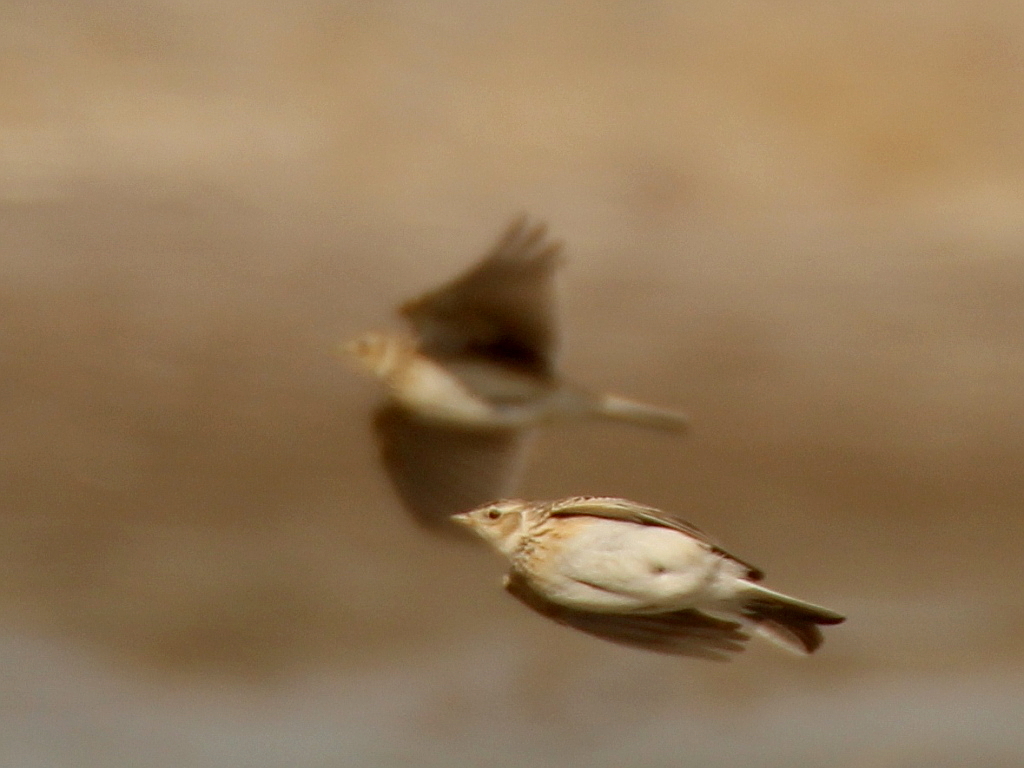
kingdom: Animalia
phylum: Chordata
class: Aves
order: Passeriformes
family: Alaudidae
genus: Alauda
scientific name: Alauda arvensis
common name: Eurasian skylark
